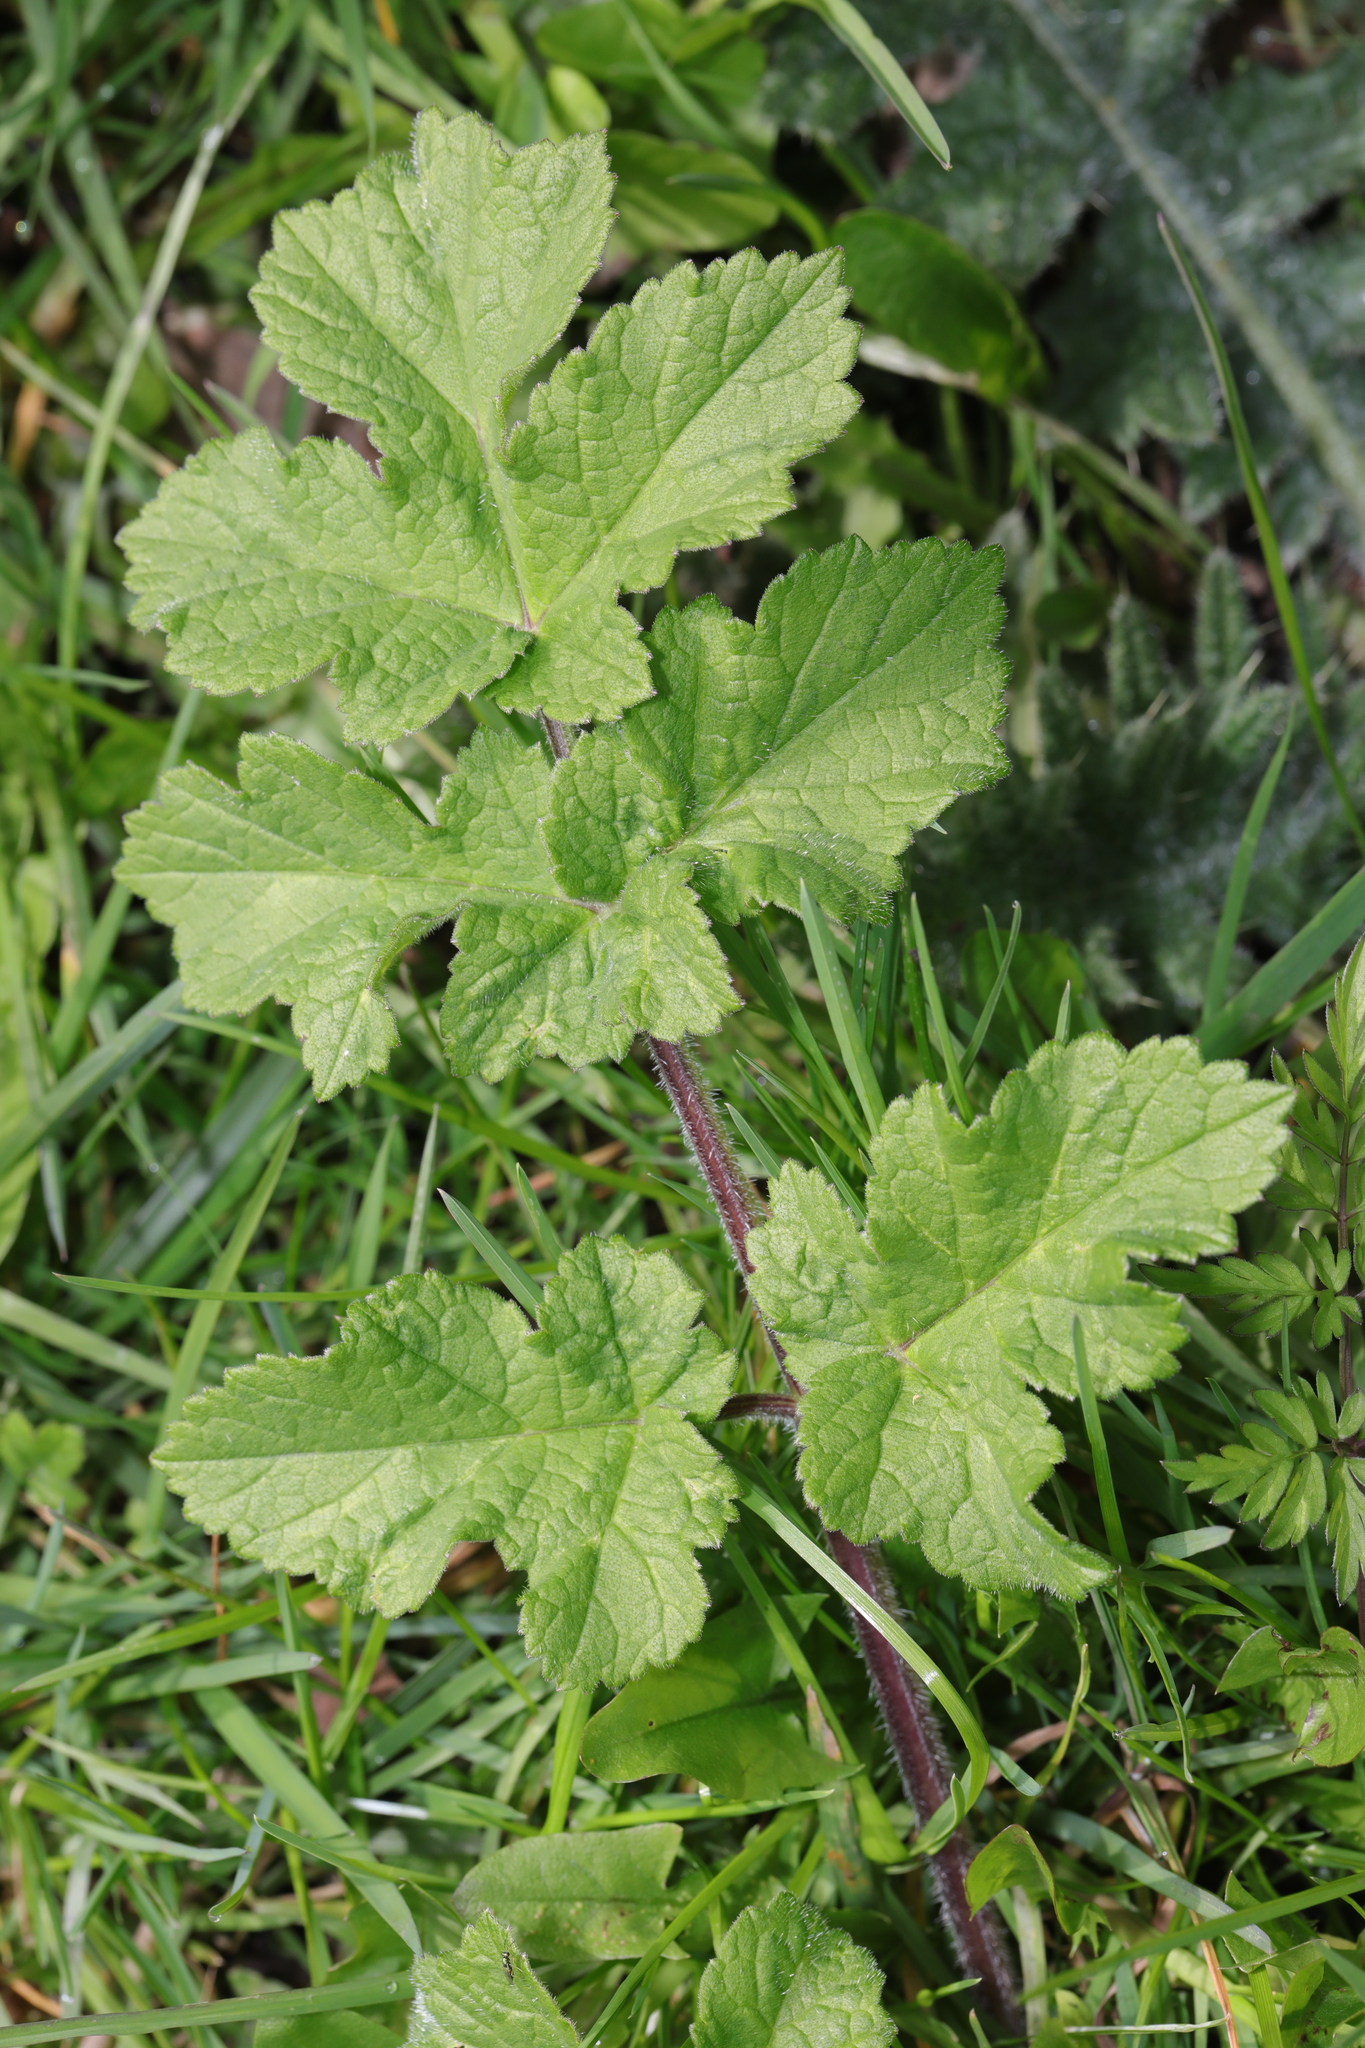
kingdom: Plantae
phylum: Tracheophyta
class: Magnoliopsida
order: Apiales
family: Apiaceae
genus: Heracleum
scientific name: Heracleum sphondylium
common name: Hogweed
